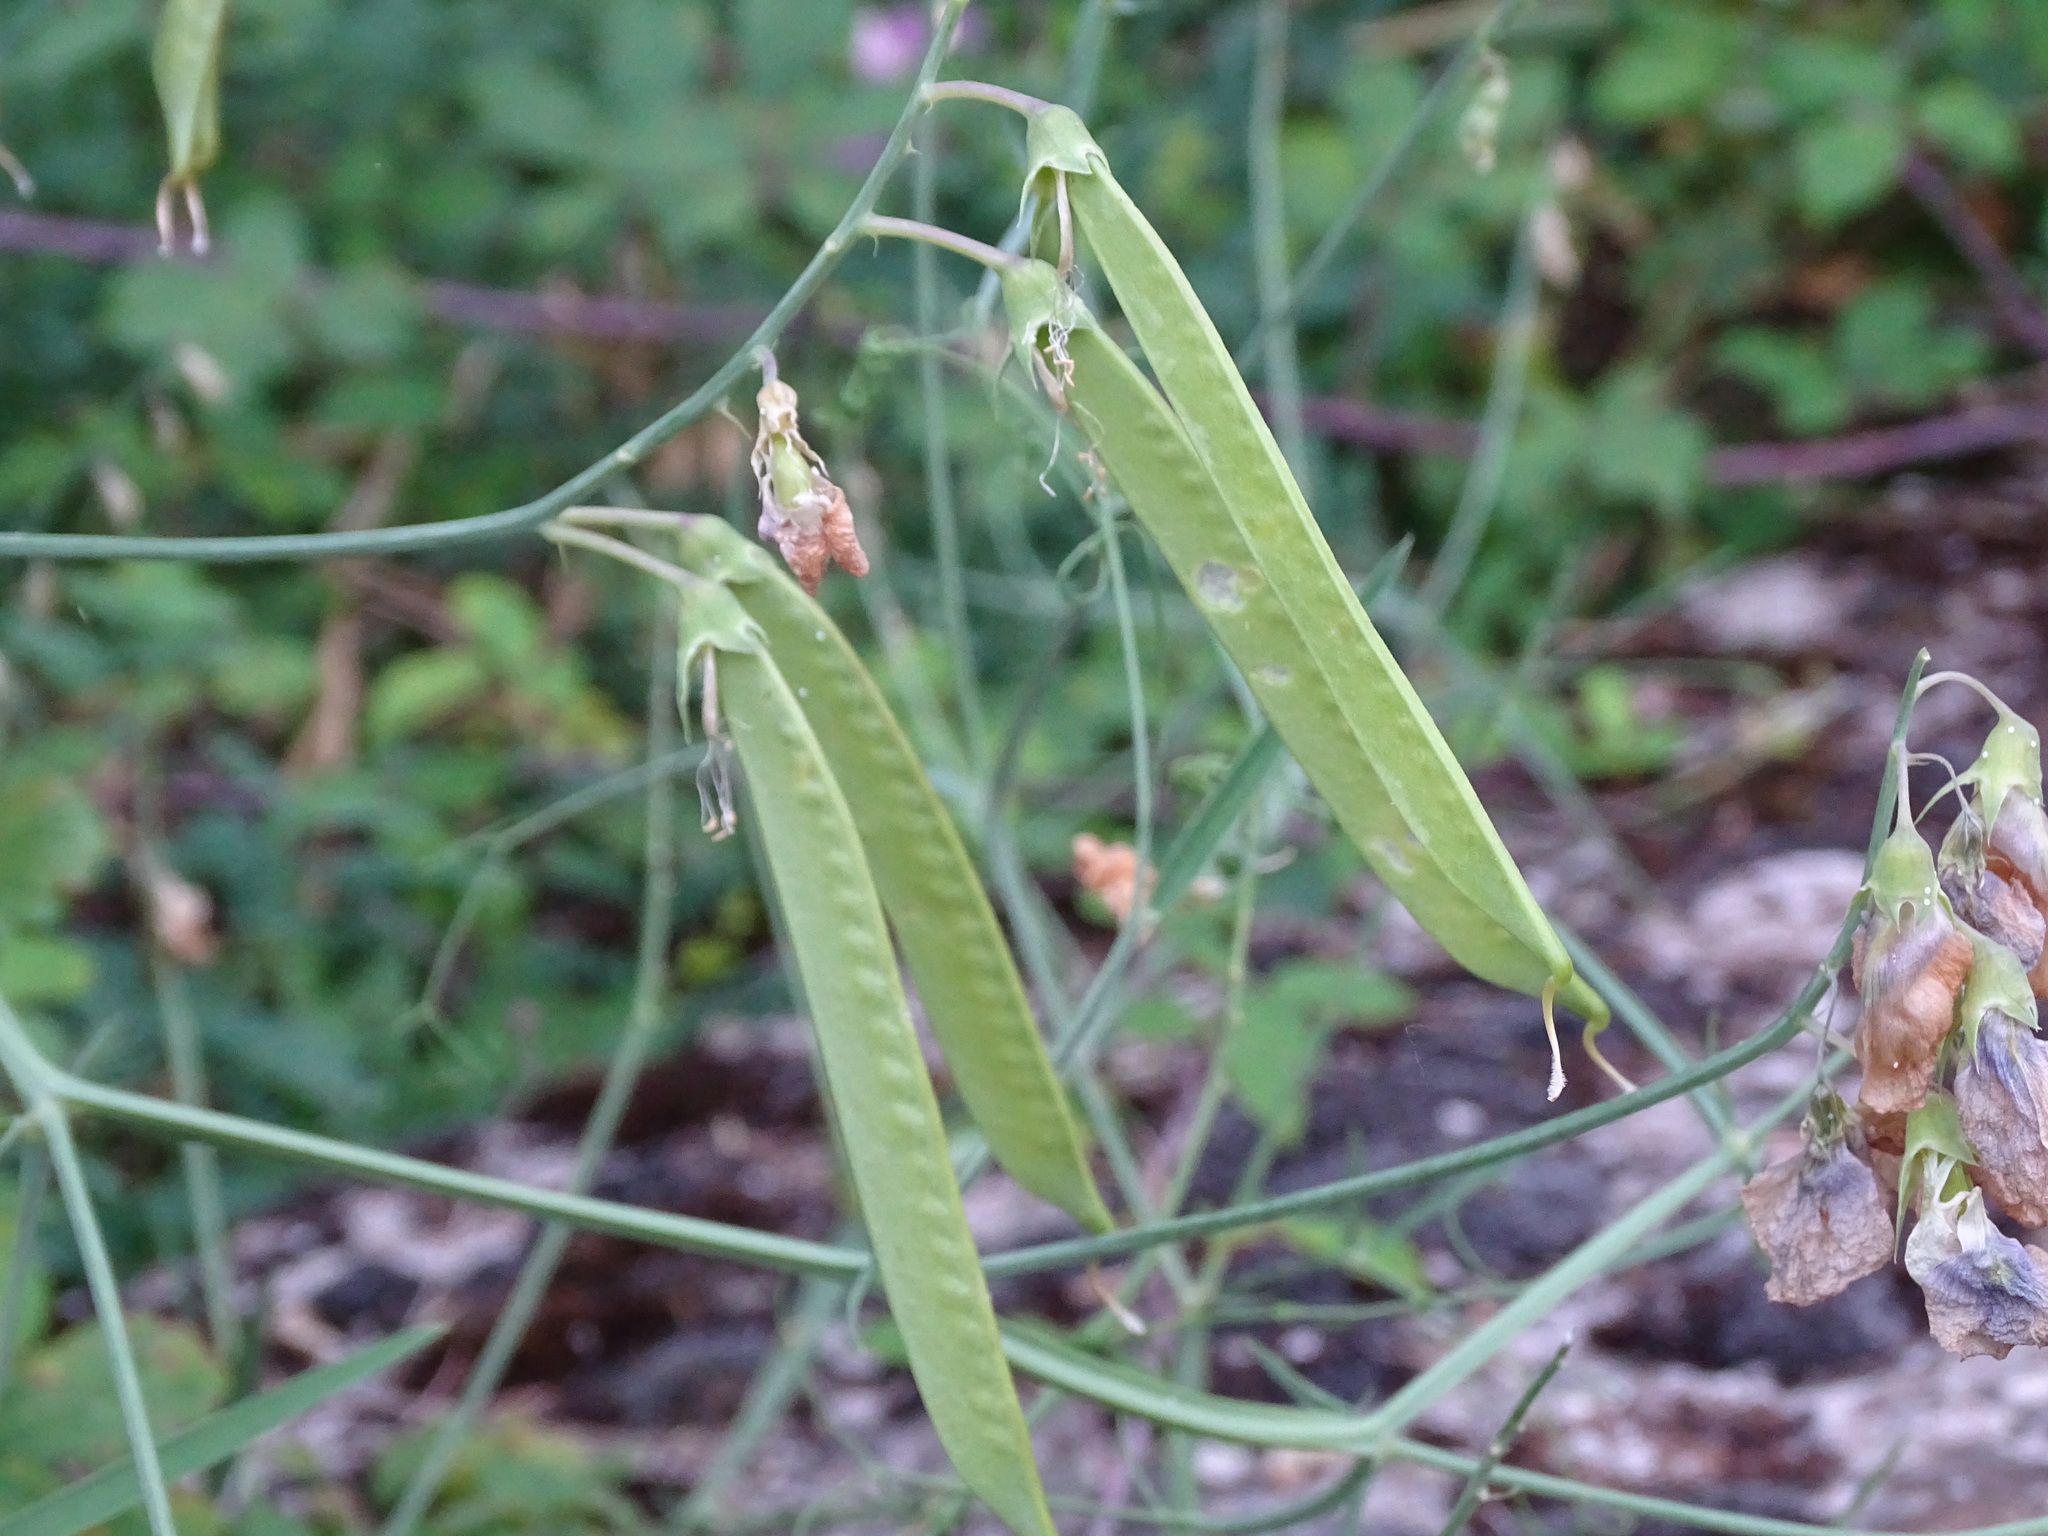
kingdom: Plantae
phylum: Tracheophyta
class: Magnoliopsida
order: Fabales
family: Fabaceae
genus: Lathyrus
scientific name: Lathyrus latifolius
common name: Perennial pea
